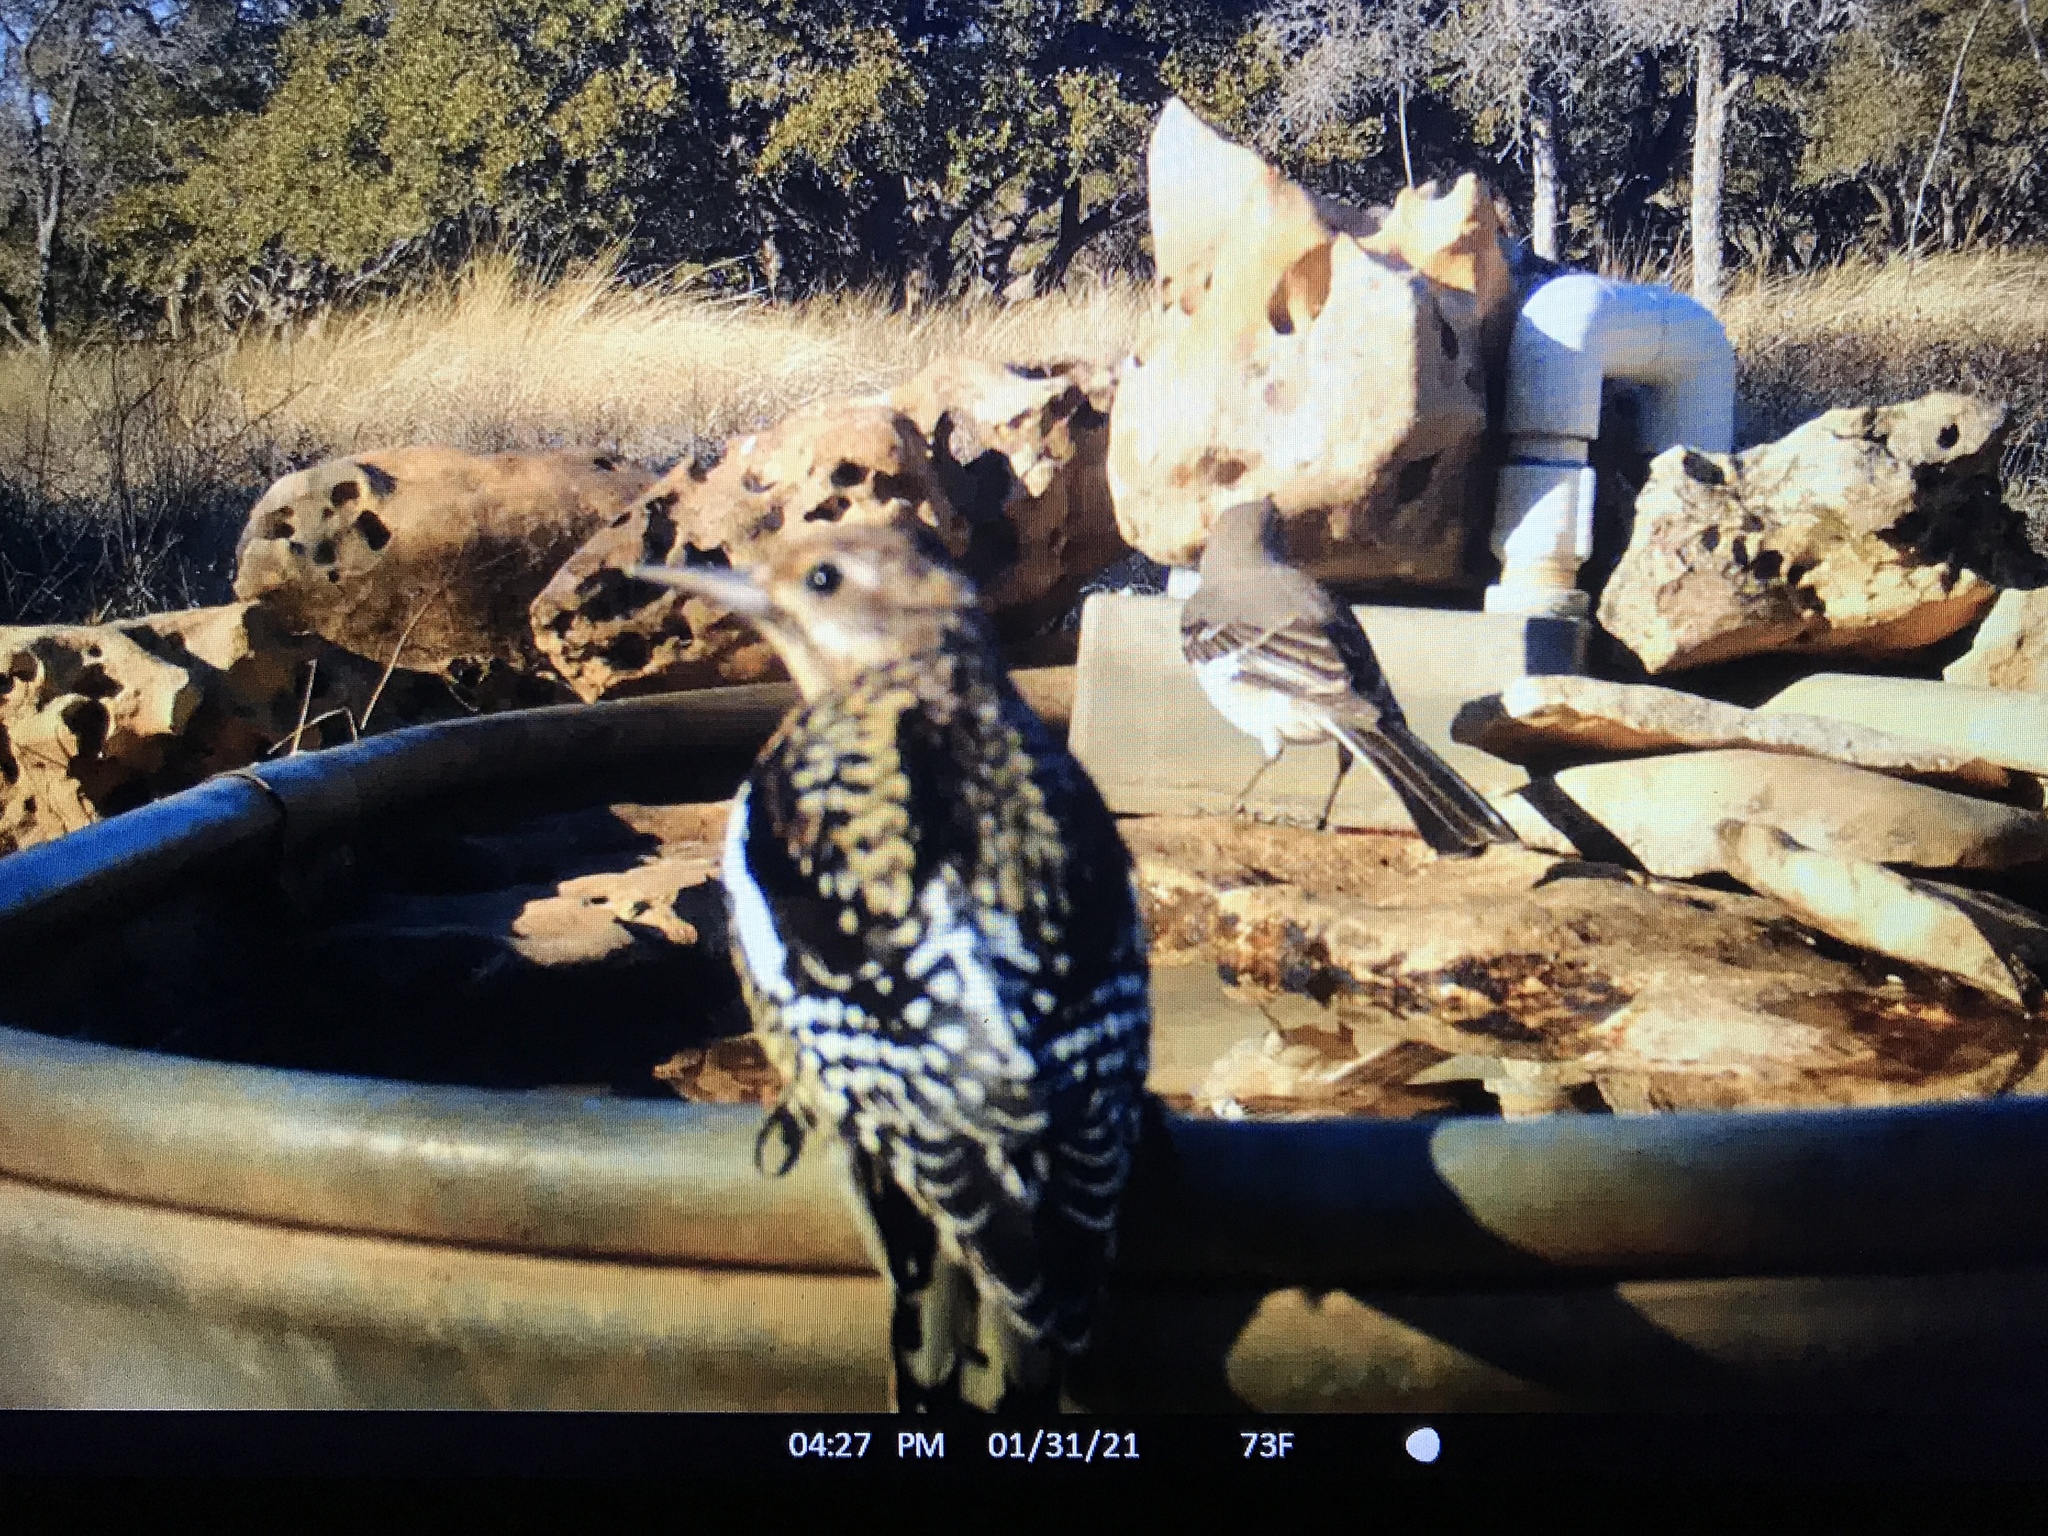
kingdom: Animalia
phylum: Chordata
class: Aves
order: Piciformes
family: Picidae
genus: Sphyrapicus
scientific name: Sphyrapicus varius
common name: Yellow-bellied sapsucker
